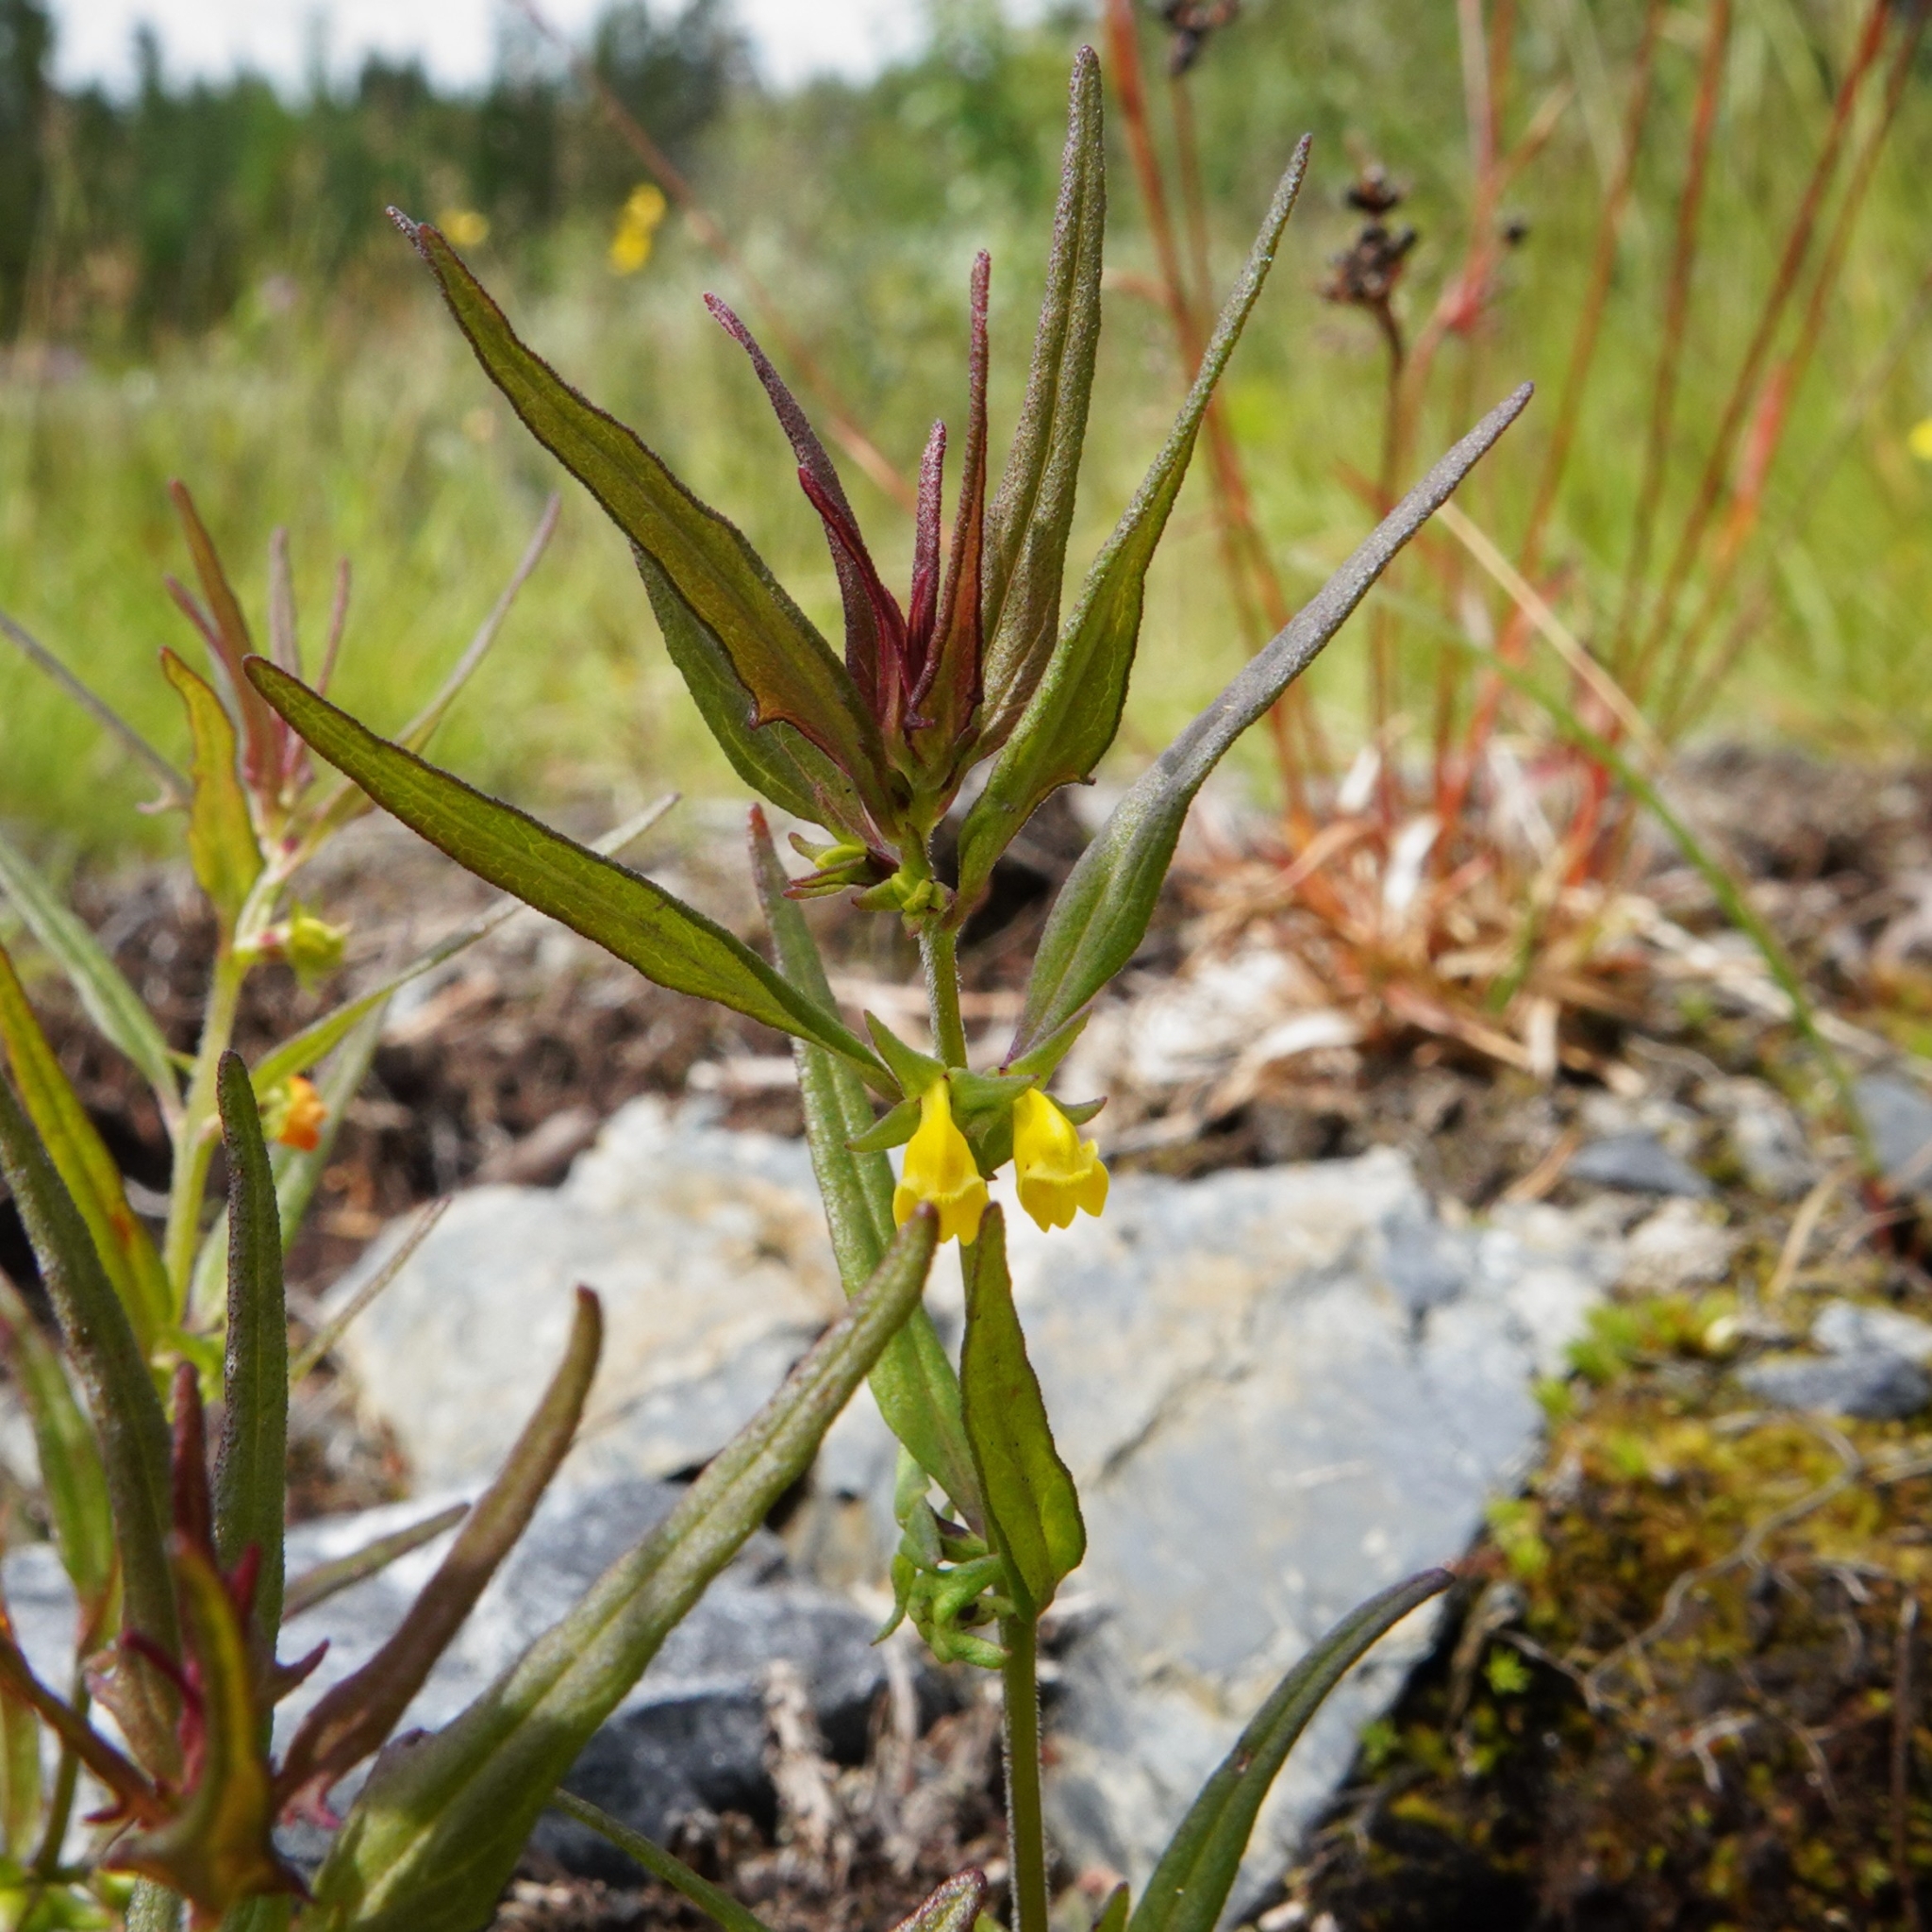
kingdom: Plantae
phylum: Tracheophyta
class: Magnoliopsida
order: Lamiales
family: Orobanchaceae
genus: Melampyrum
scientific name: Melampyrum sylvaticum
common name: Small cow-wheat
